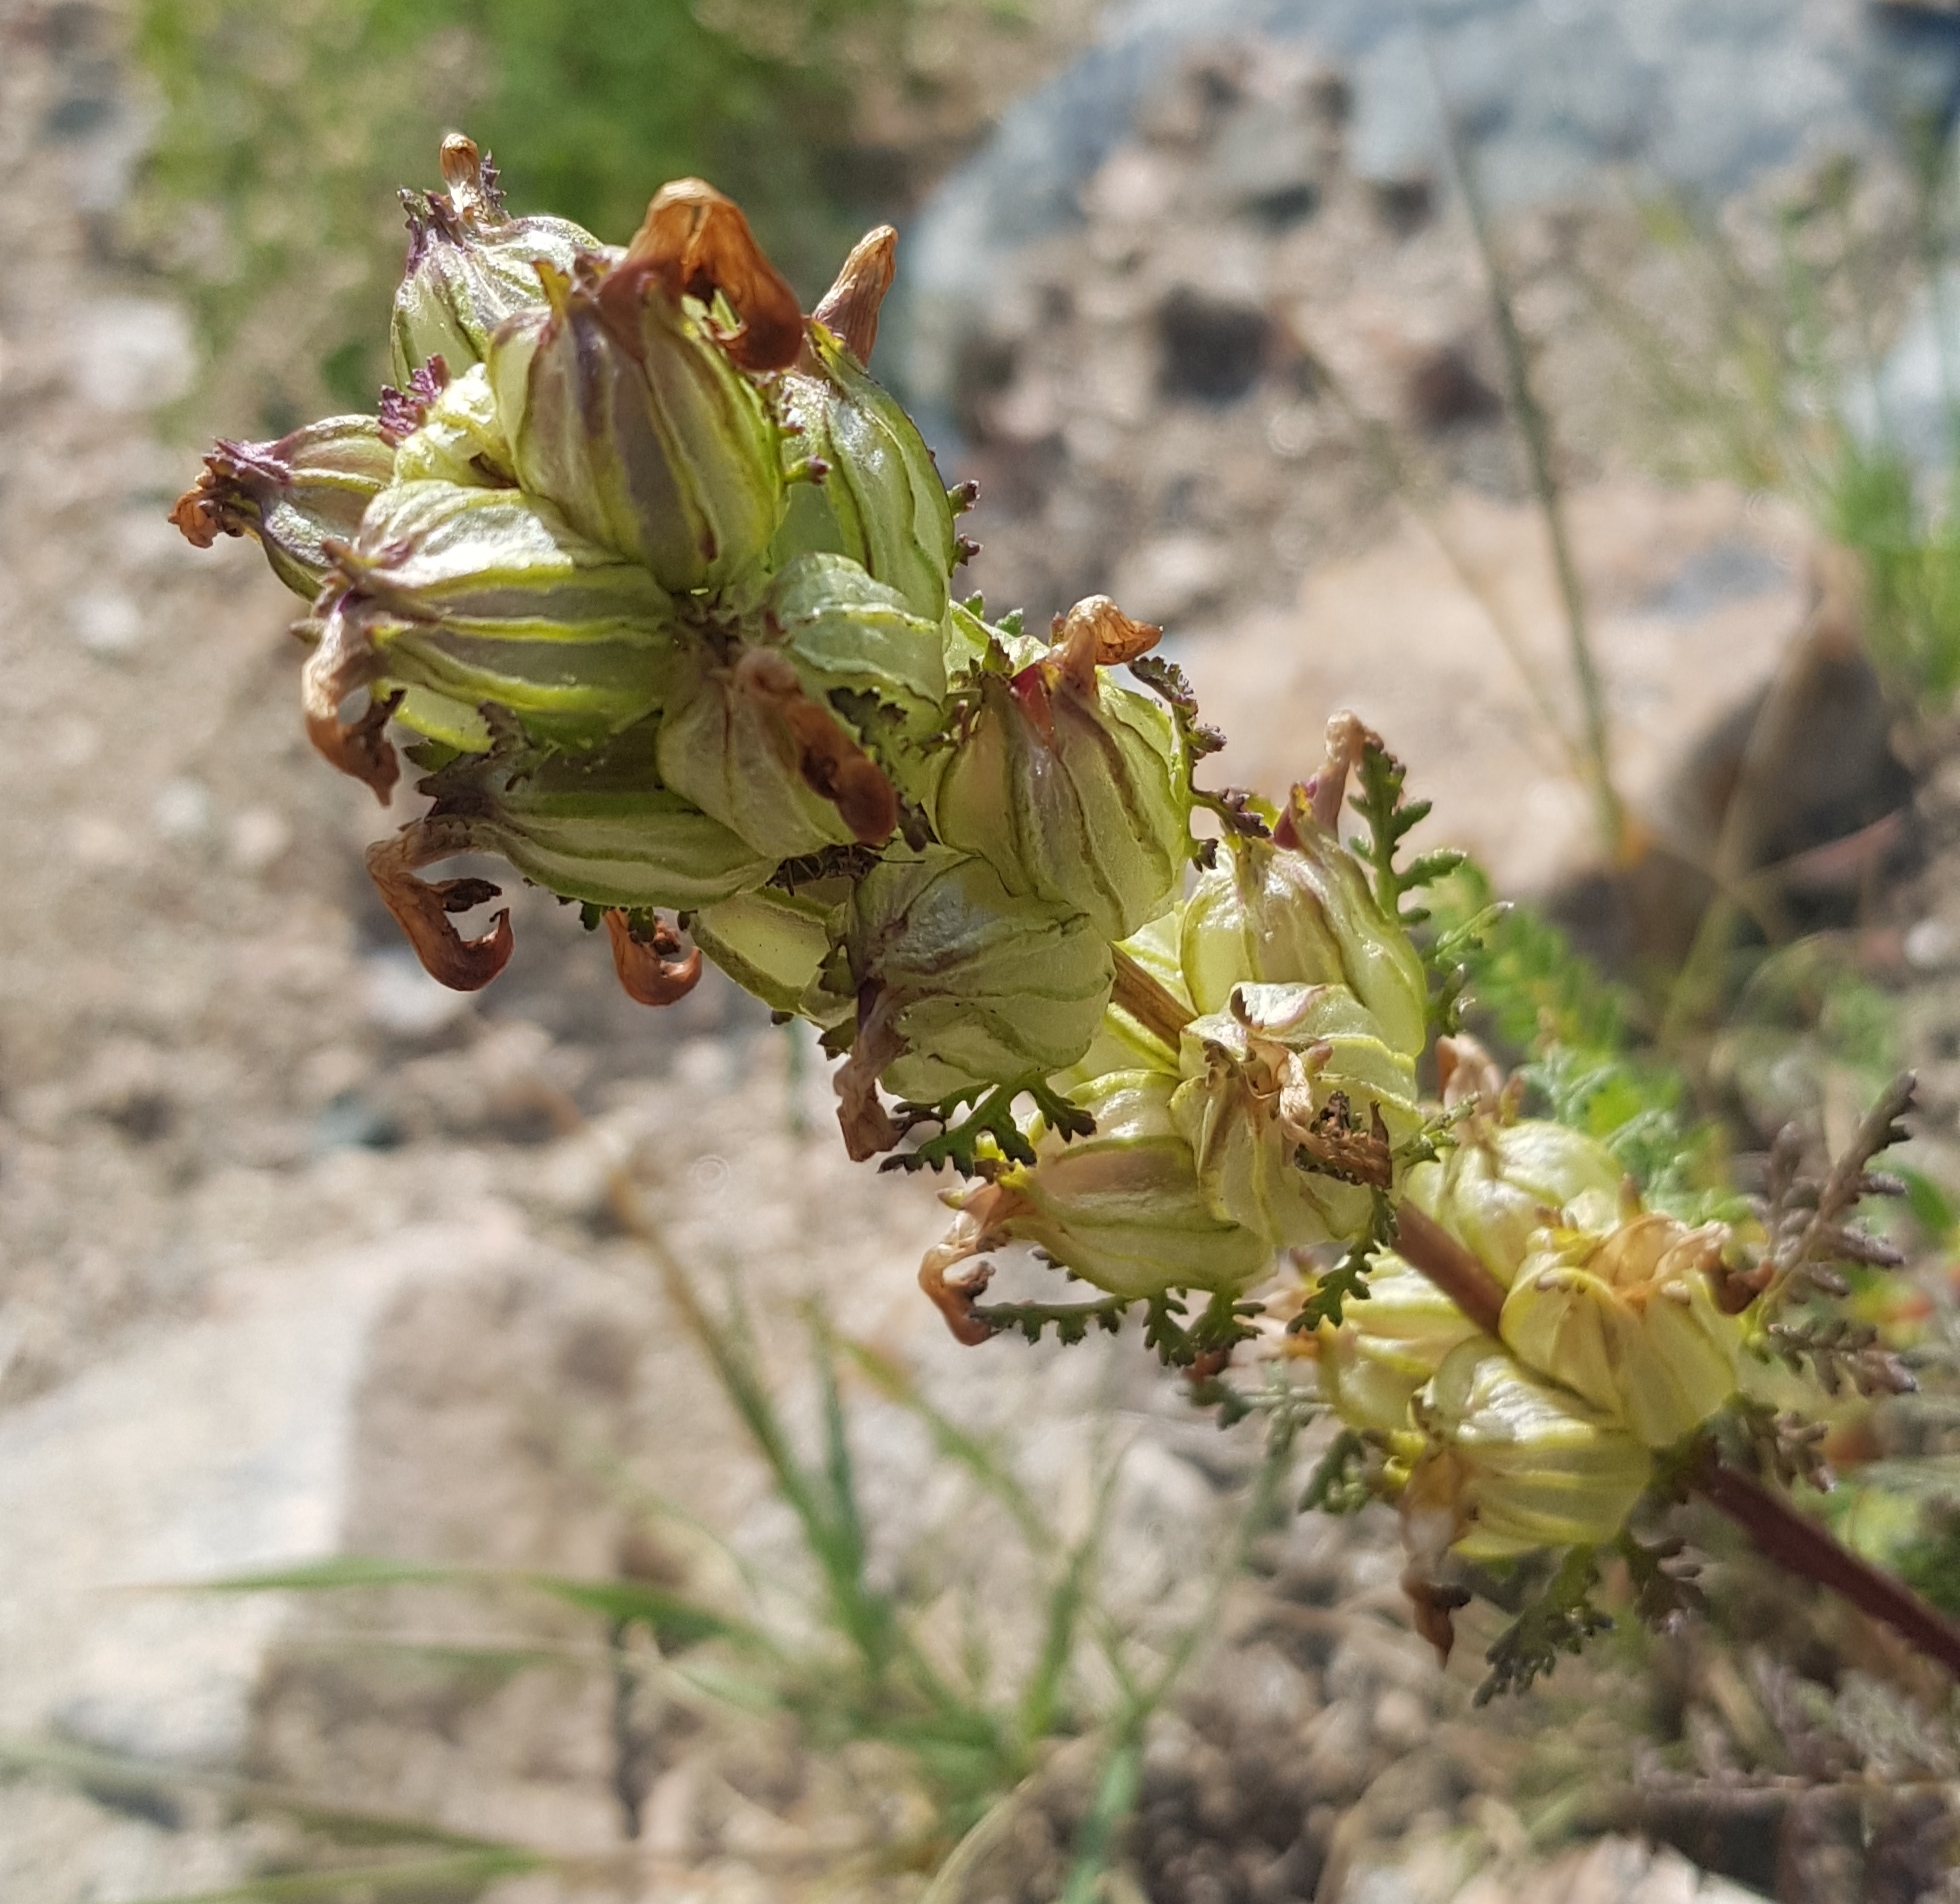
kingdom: Plantae
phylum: Tracheophyta
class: Magnoliopsida
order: Lamiales
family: Orobanchaceae
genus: Pedicularis
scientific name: Pedicularis myriophylla
